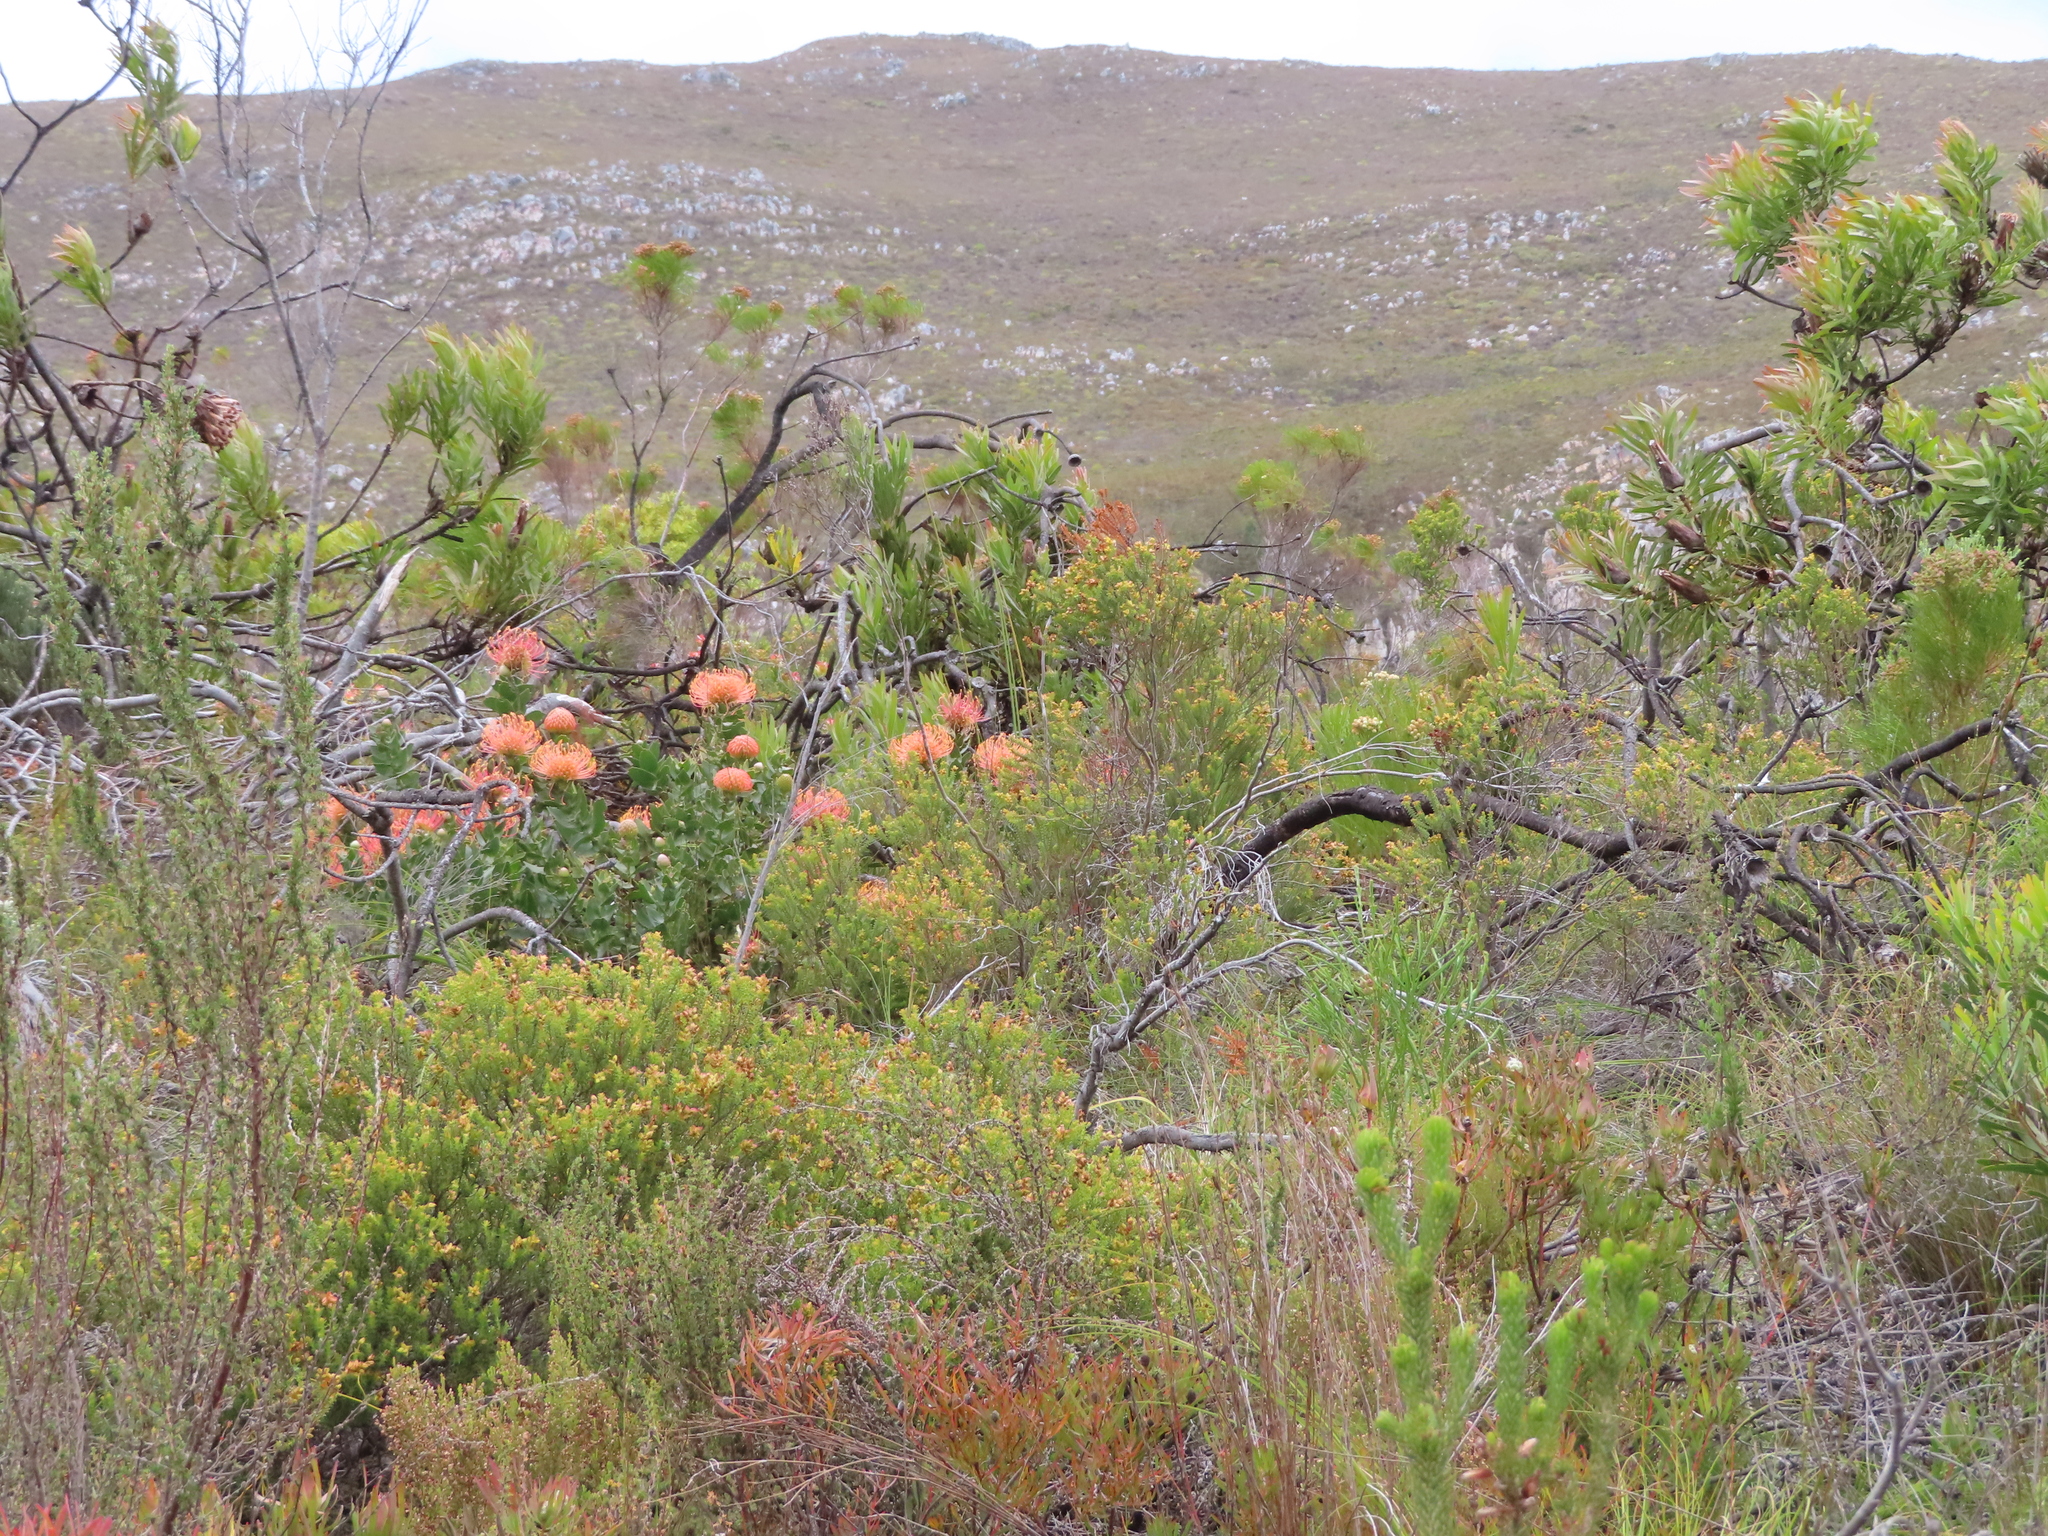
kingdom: Plantae
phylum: Tracheophyta
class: Magnoliopsida
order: Proteales
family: Proteaceae
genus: Leucospermum
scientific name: Leucospermum cordifolium
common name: Red pincushion-protea
